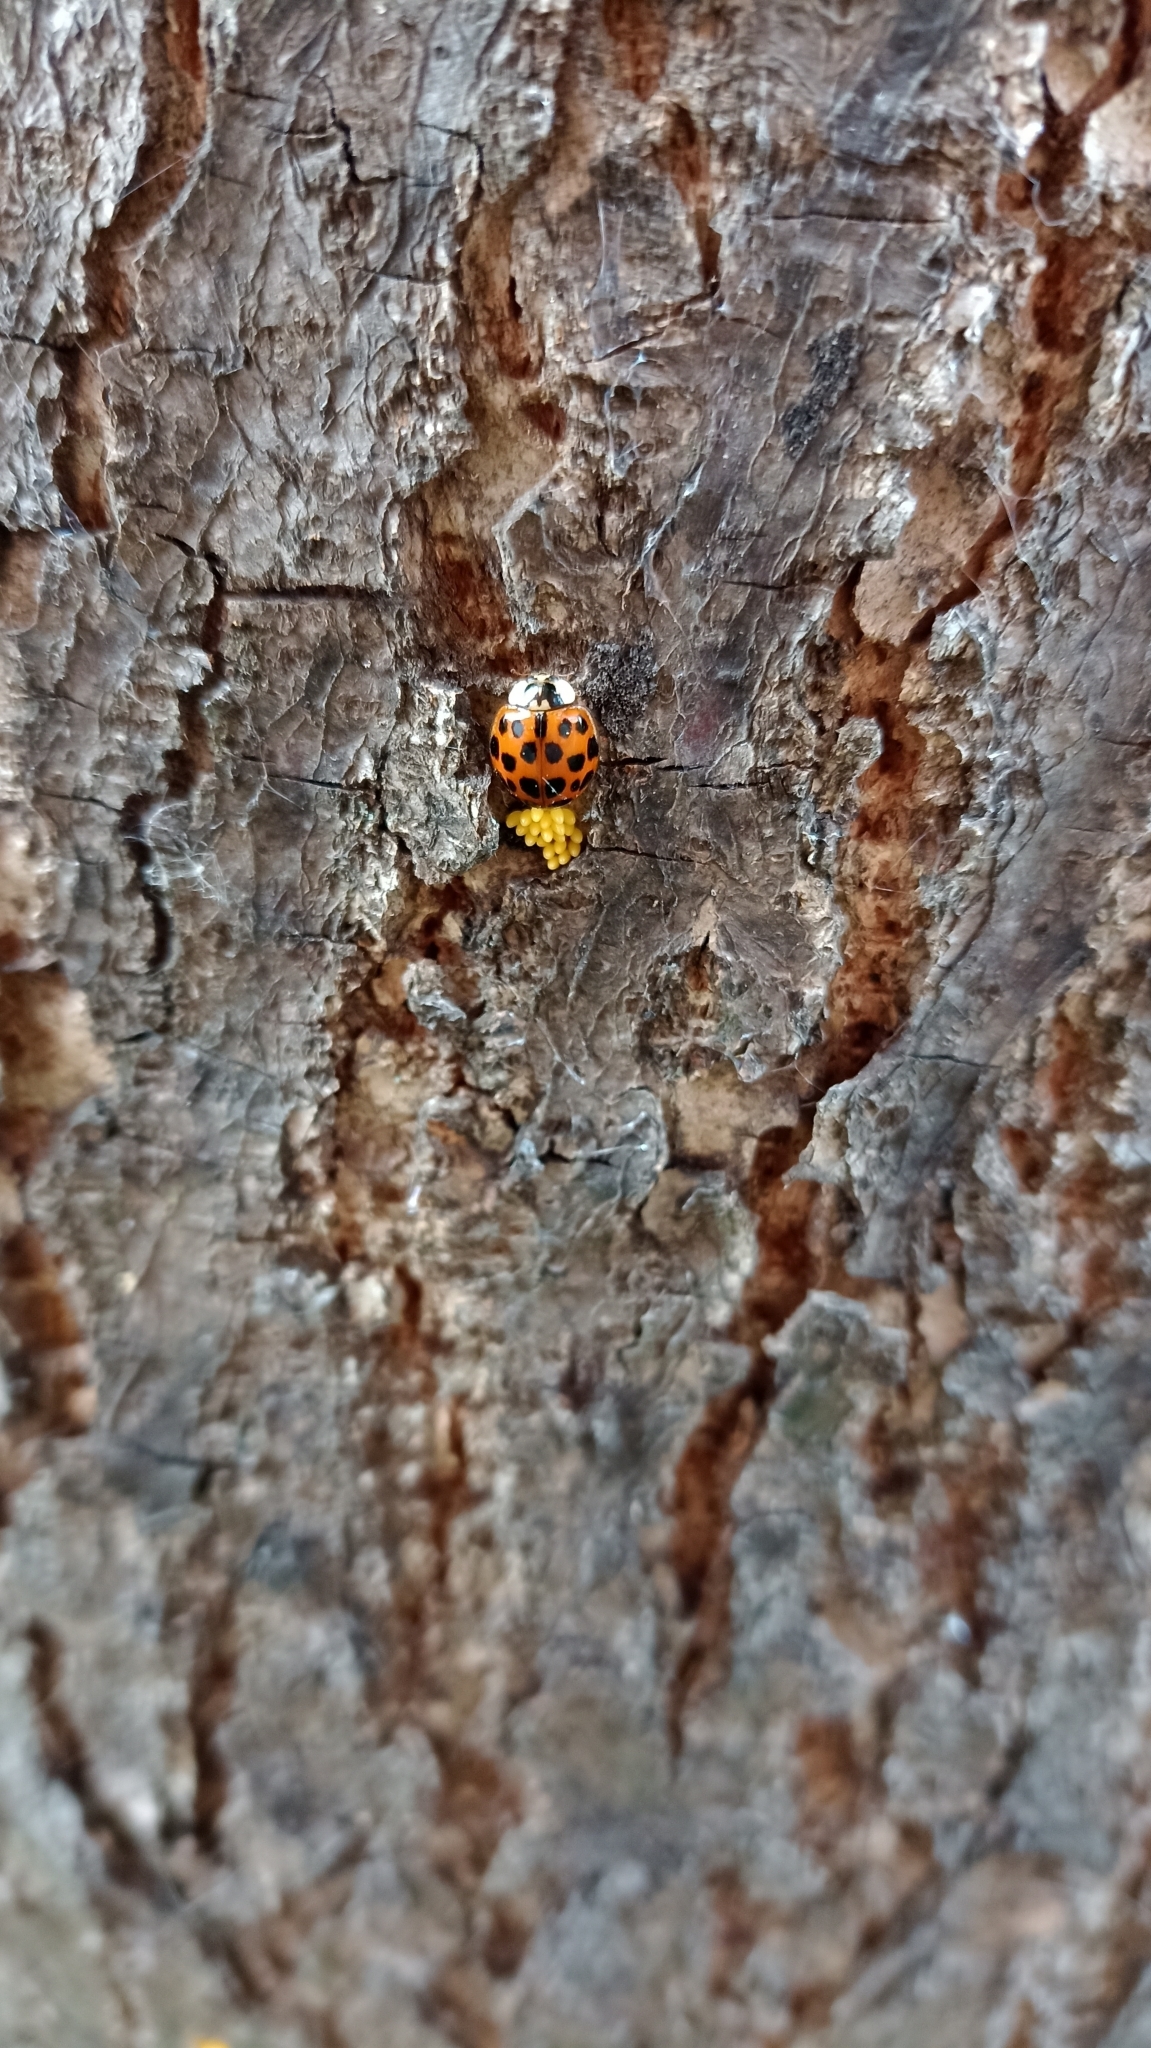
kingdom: Animalia
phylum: Arthropoda
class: Insecta
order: Coleoptera
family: Coccinellidae
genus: Harmonia
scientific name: Harmonia axyridis
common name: Harlequin ladybird
